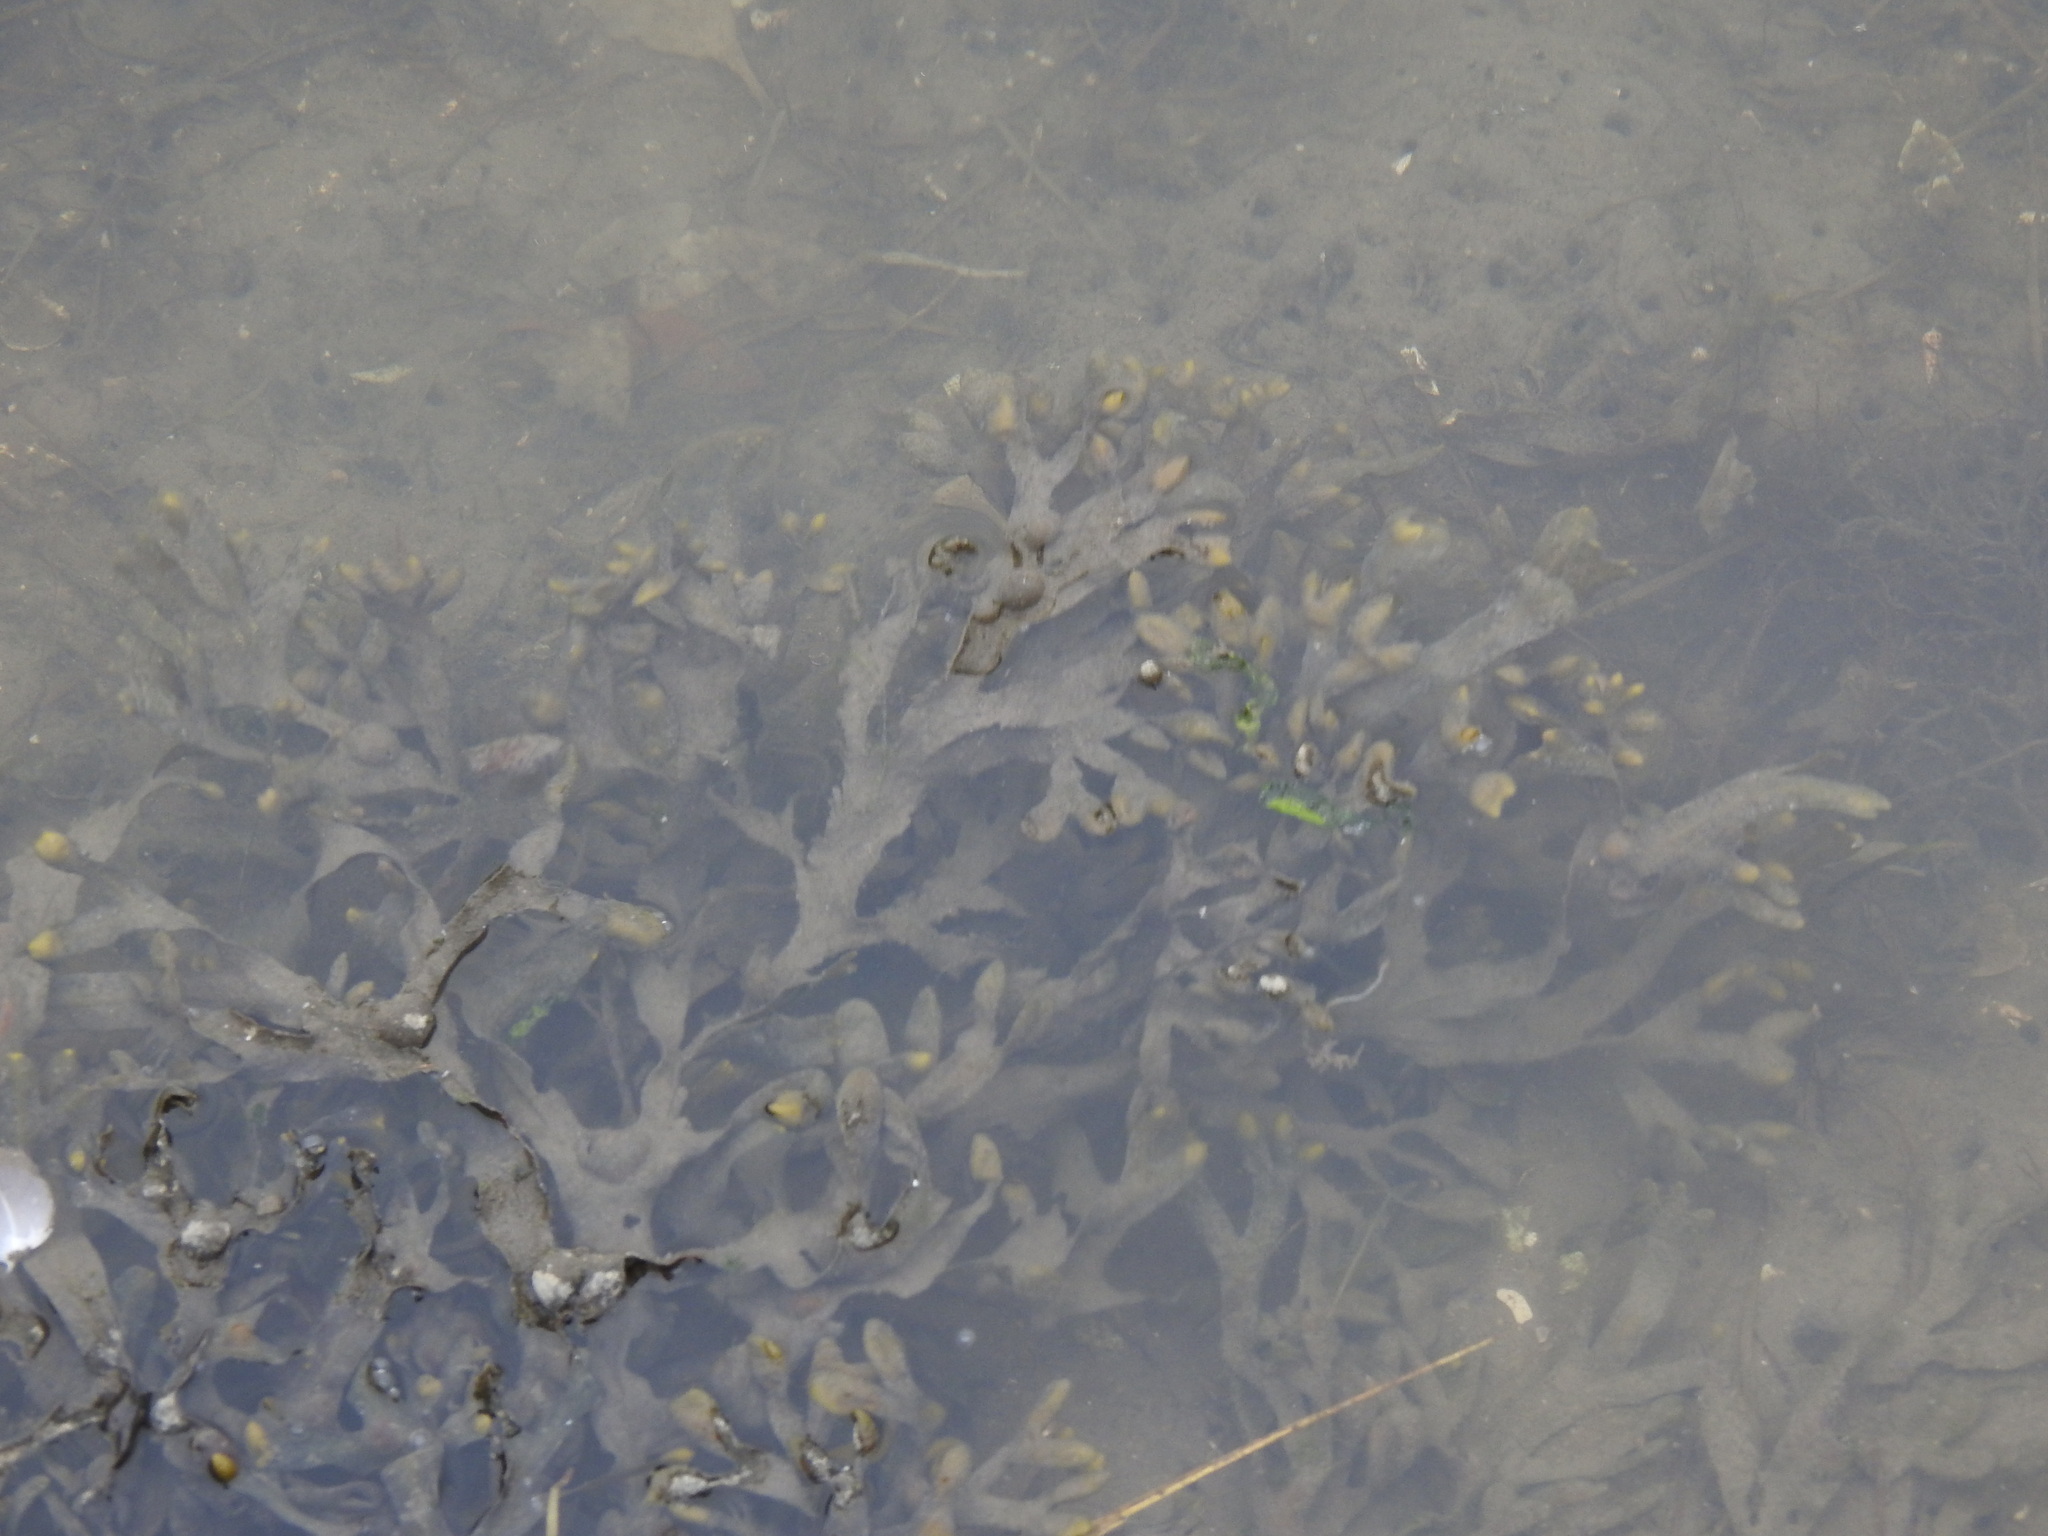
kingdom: Chromista
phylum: Ochrophyta
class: Phaeophyceae
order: Fucales
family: Fucaceae
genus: Fucus
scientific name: Fucus vesiculosus
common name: Bladder wrack
